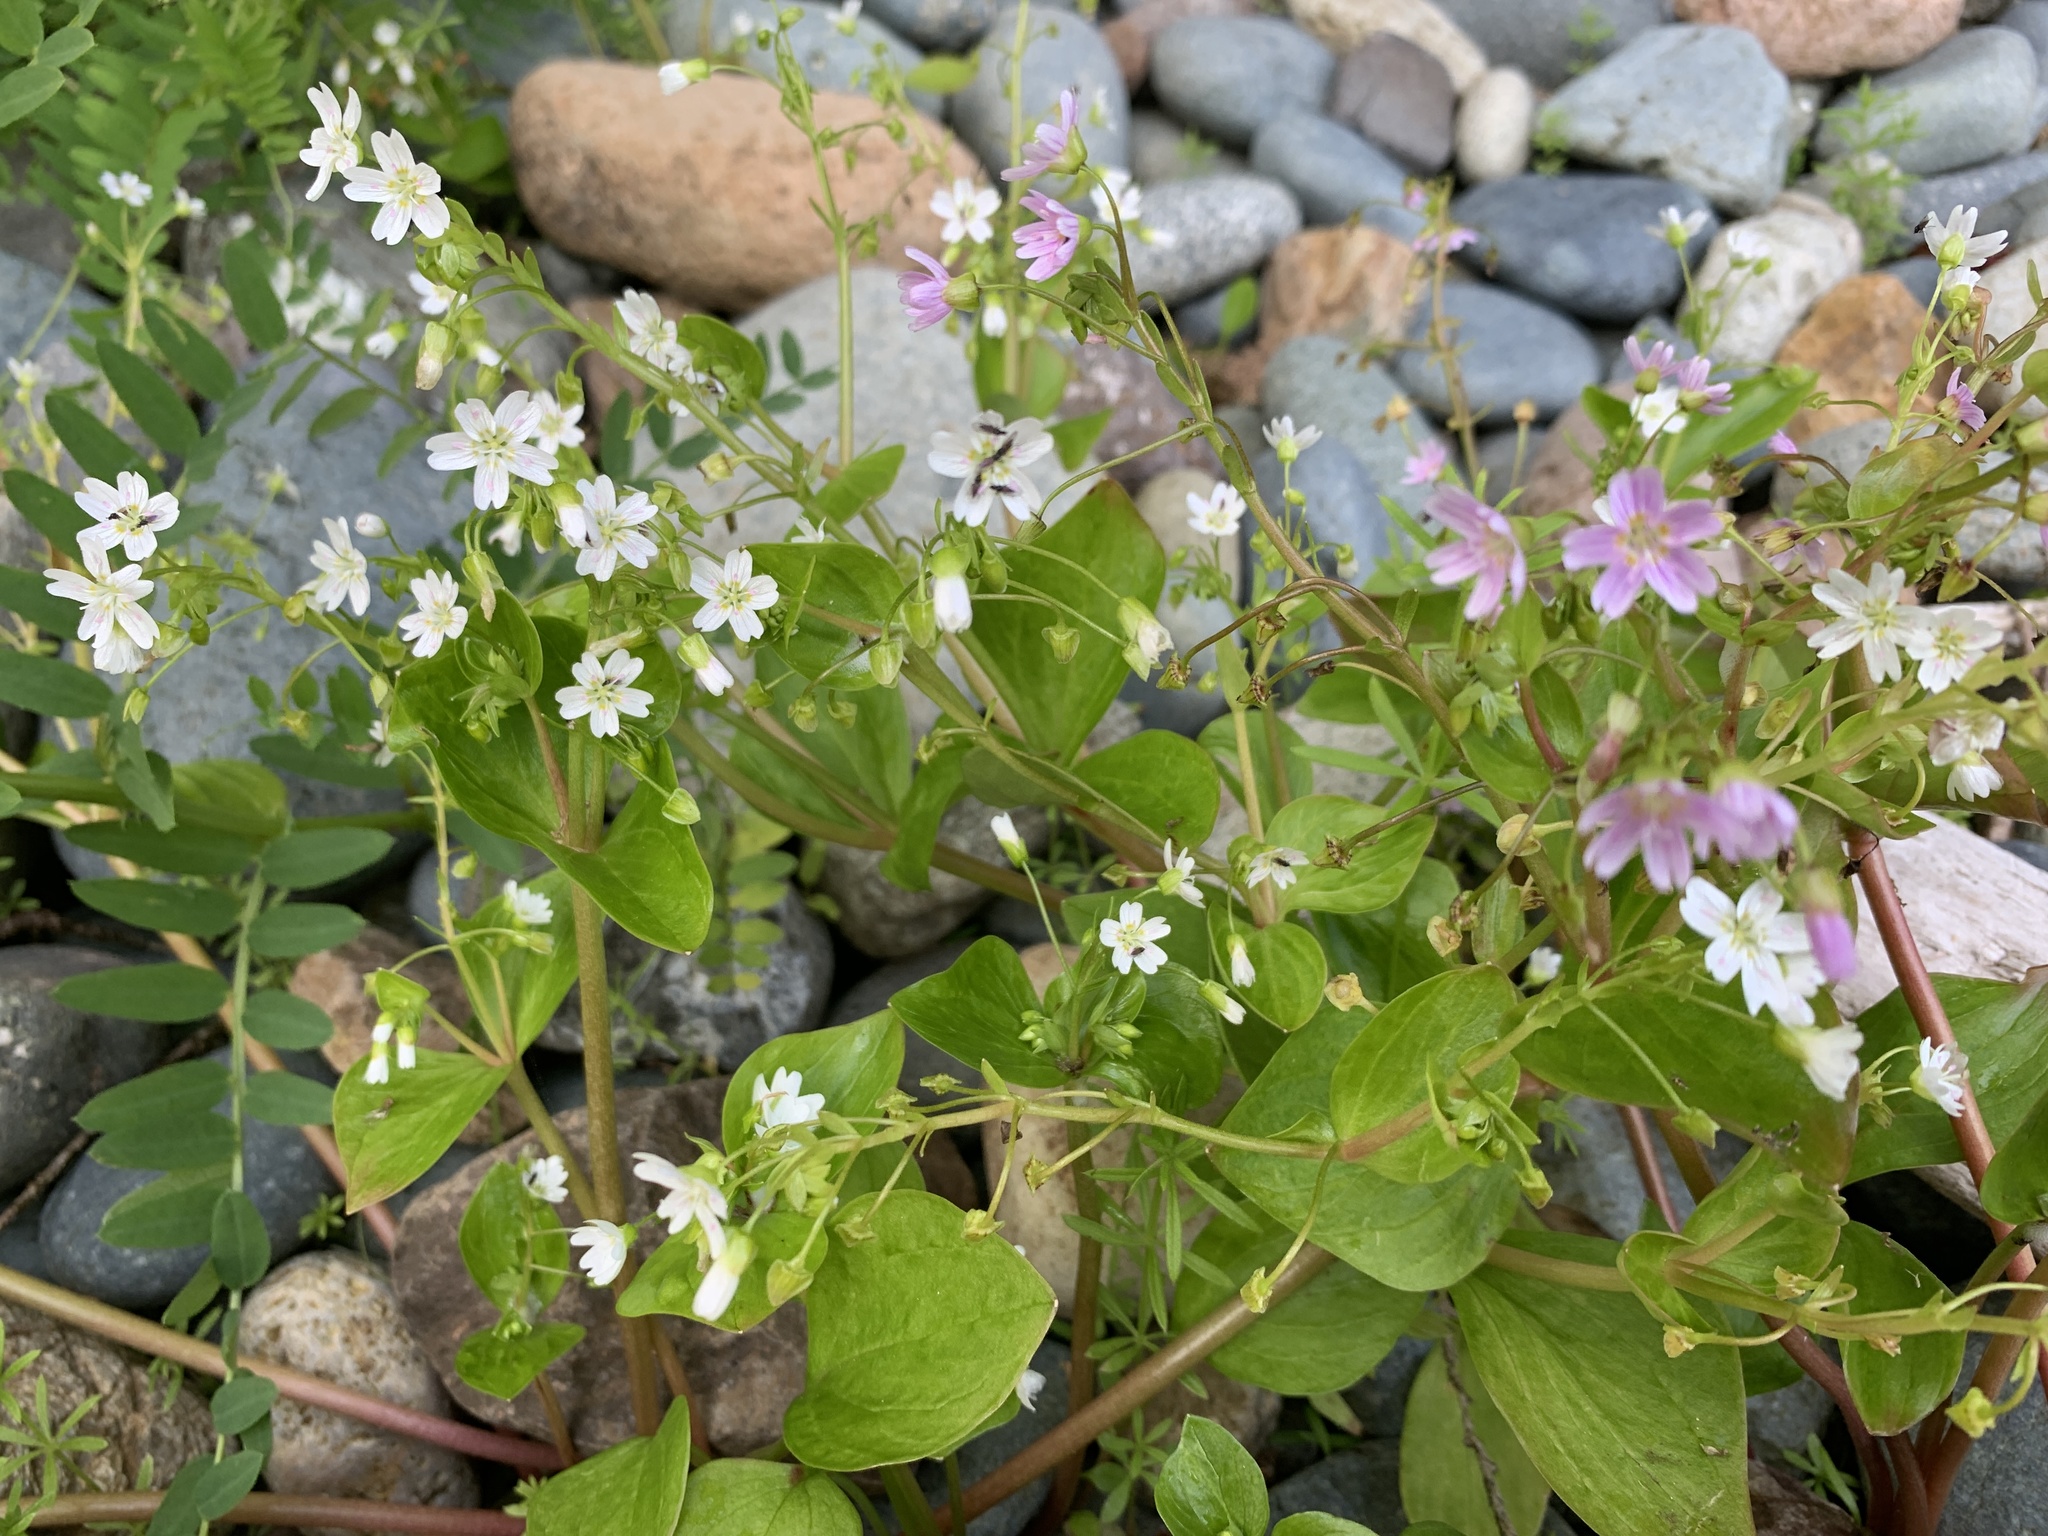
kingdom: Plantae
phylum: Tracheophyta
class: Magnoliopsida
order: Caryophyllales
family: Montiaceae
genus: Claytonia
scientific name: Claytonia sibirica
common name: Pink purslane
